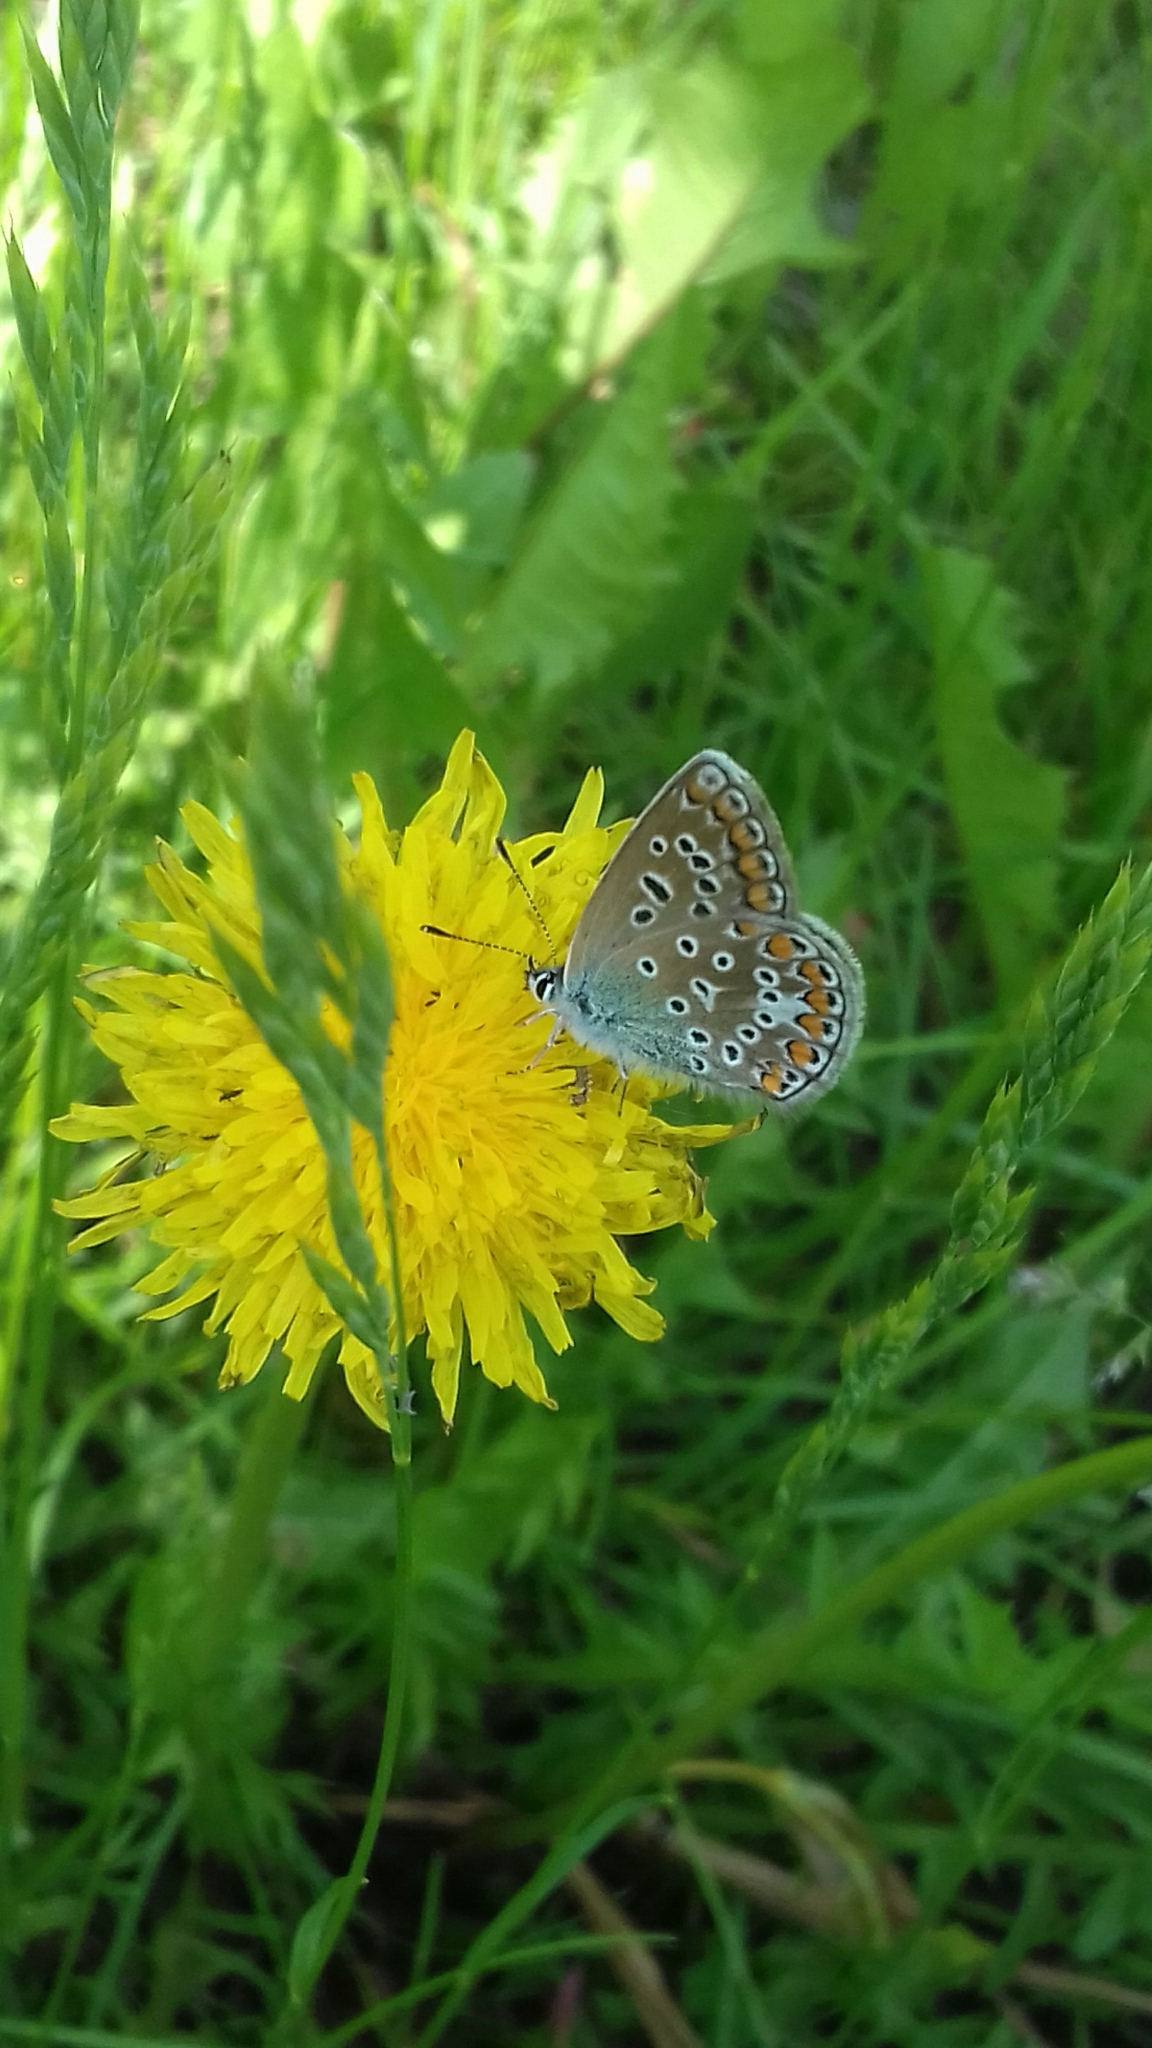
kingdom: Animalia
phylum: Arthropoda
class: Insecta
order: Lepidoptera
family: Lycaenidae
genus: Polyommatus
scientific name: Polyommatus icarus
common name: Common blue
